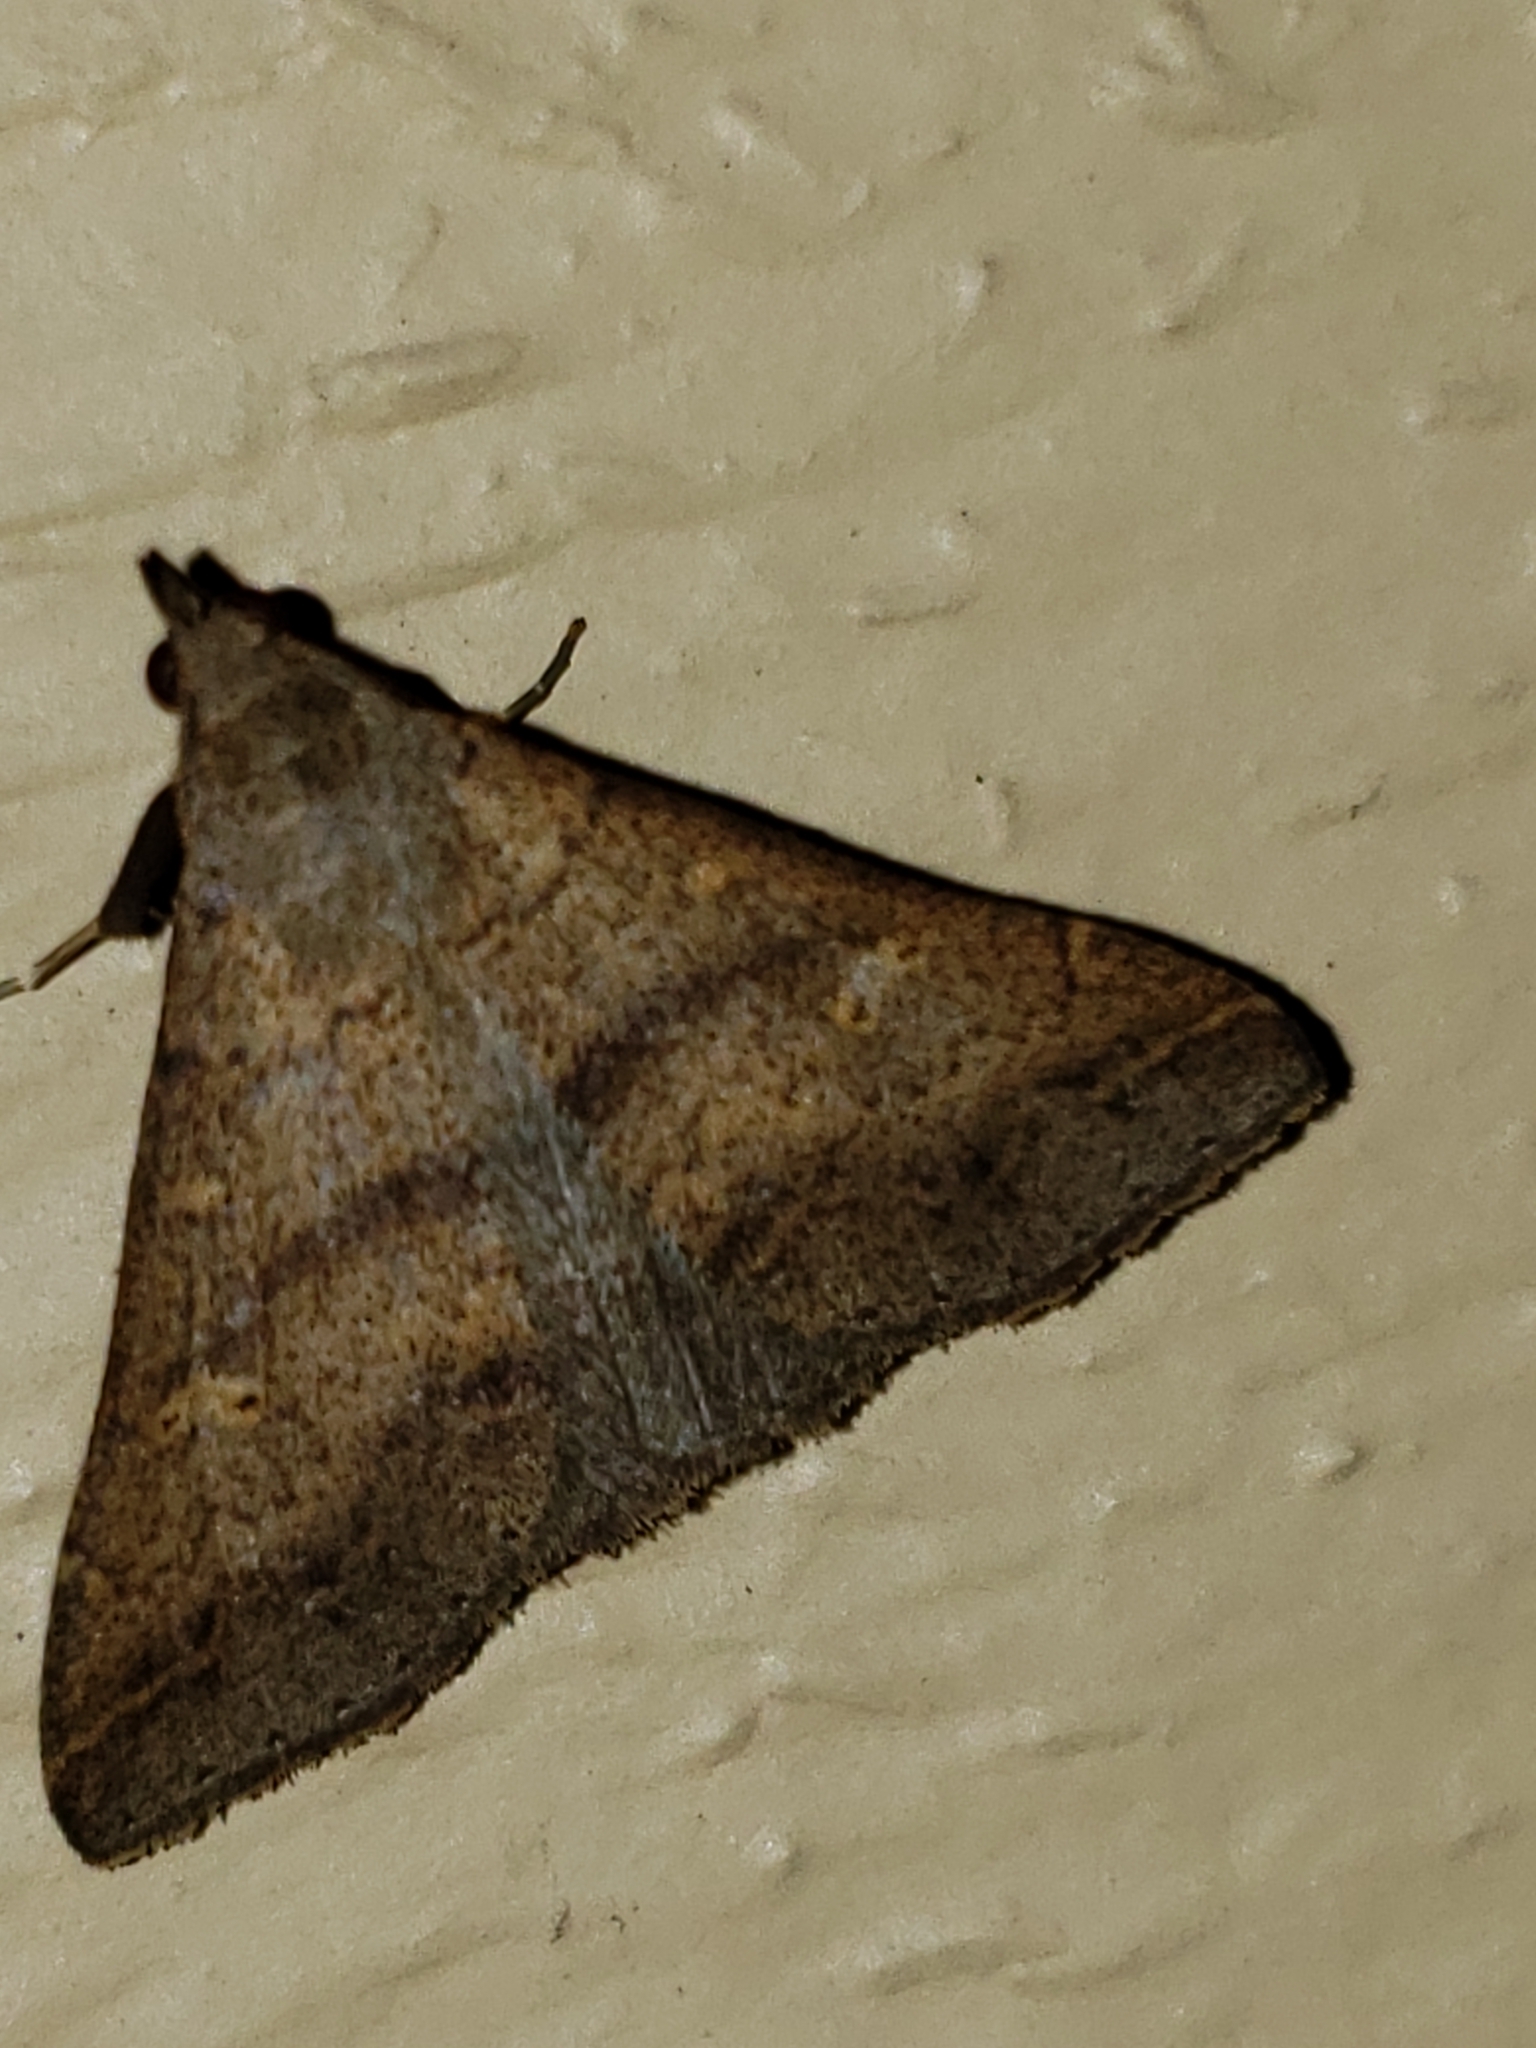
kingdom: Animalia
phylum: Arthropoda
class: Insecta
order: Lepidoptera
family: Erebidae
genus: Renia
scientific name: Renia discoloralis
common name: Discolored renia moth
